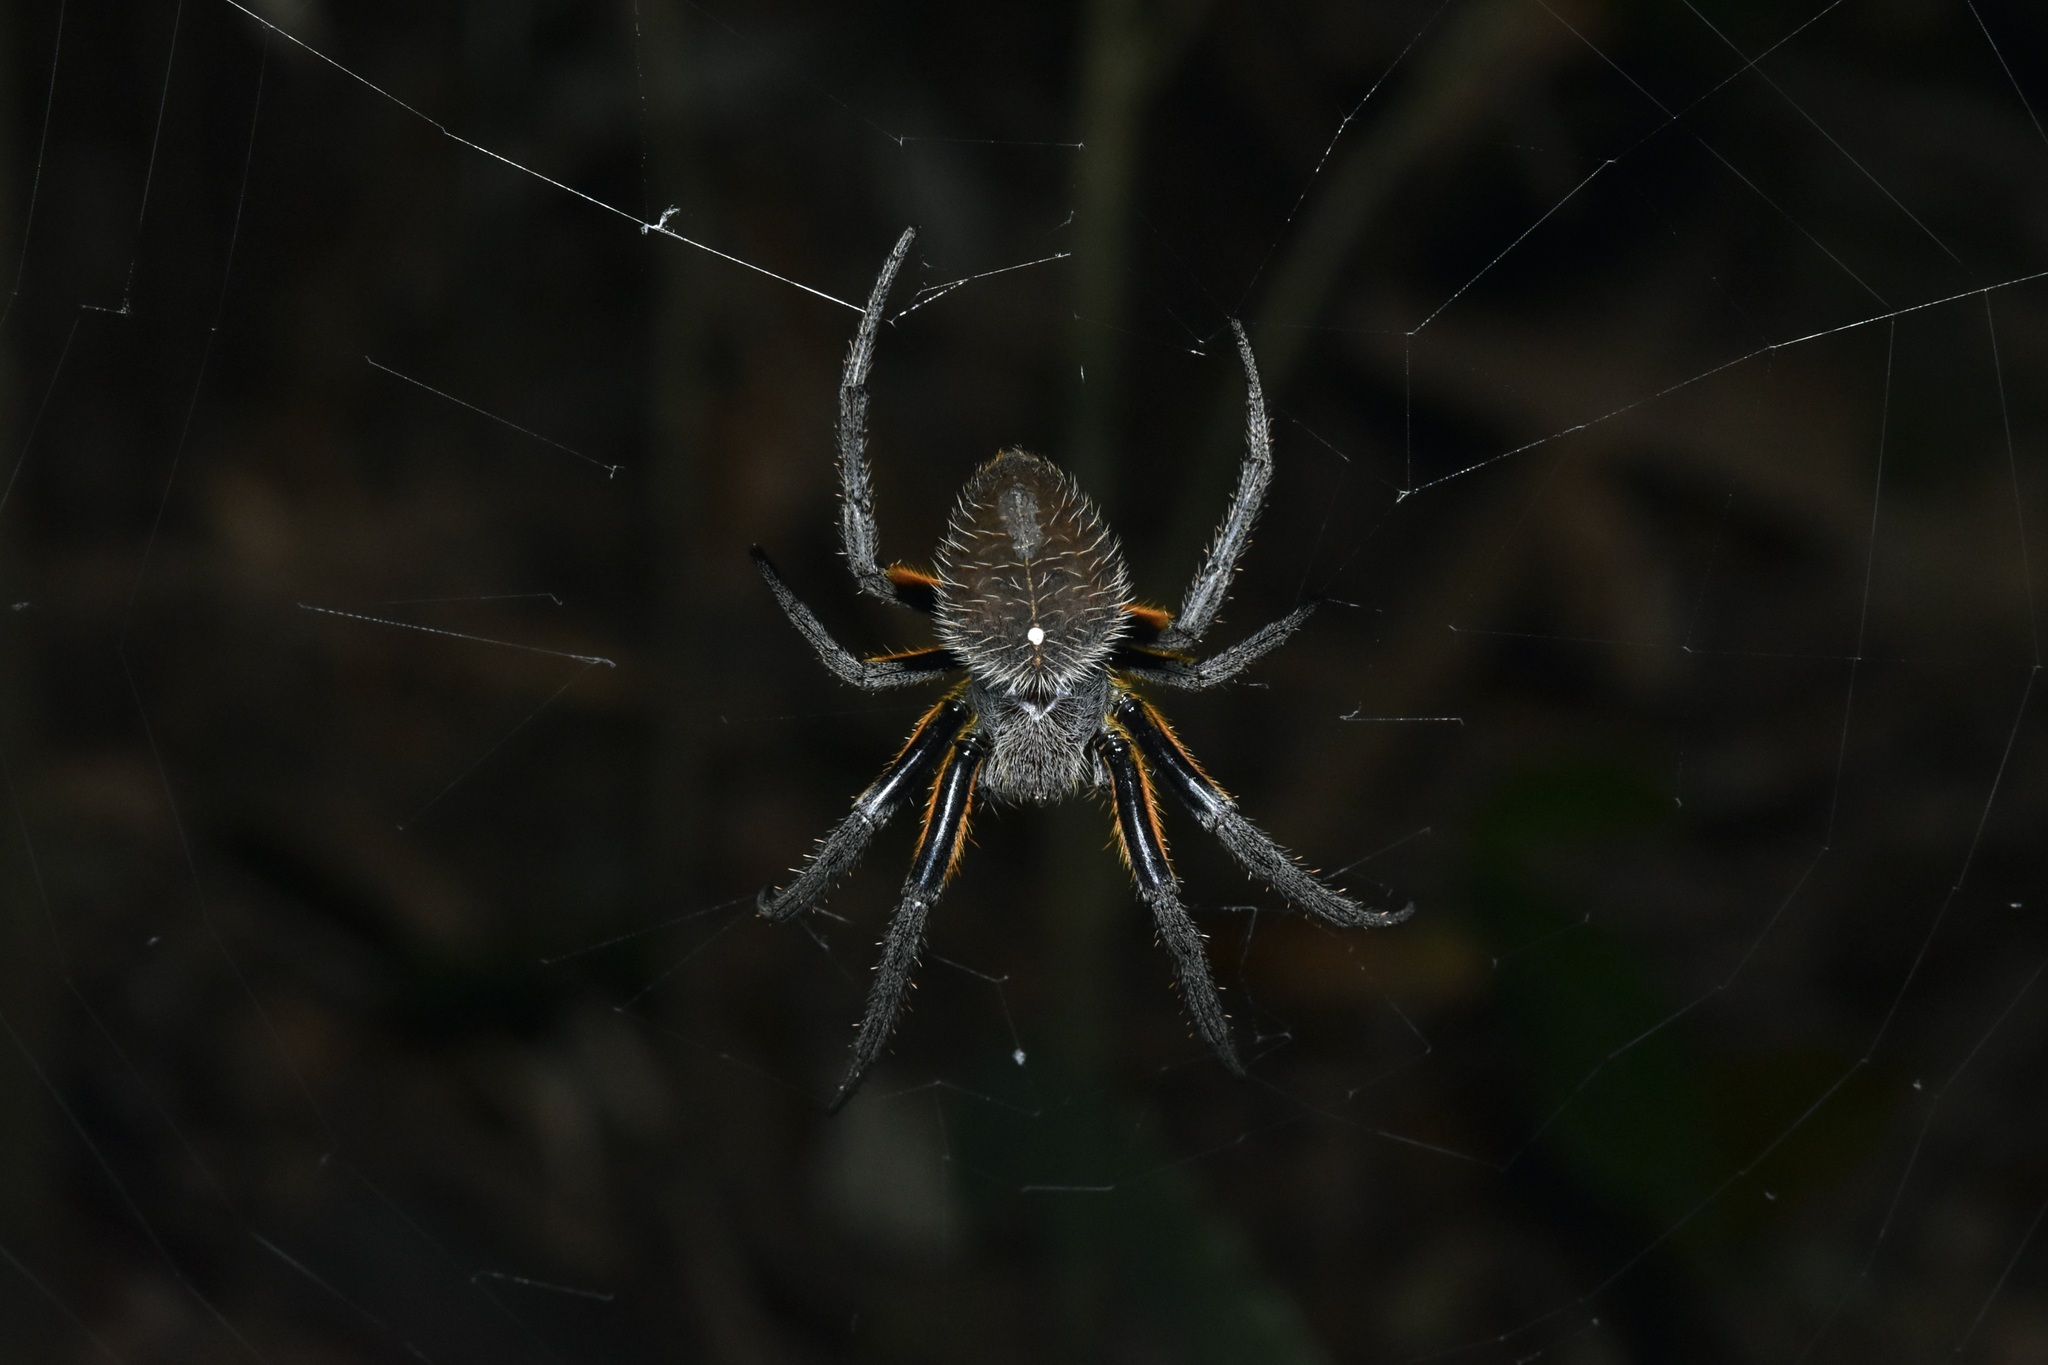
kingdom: Animalia
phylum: Arthropoda
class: Arachnida
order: Araneae
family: Araneidae
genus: Eriophora
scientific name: Eriophora fuliginea
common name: Orb weavers
